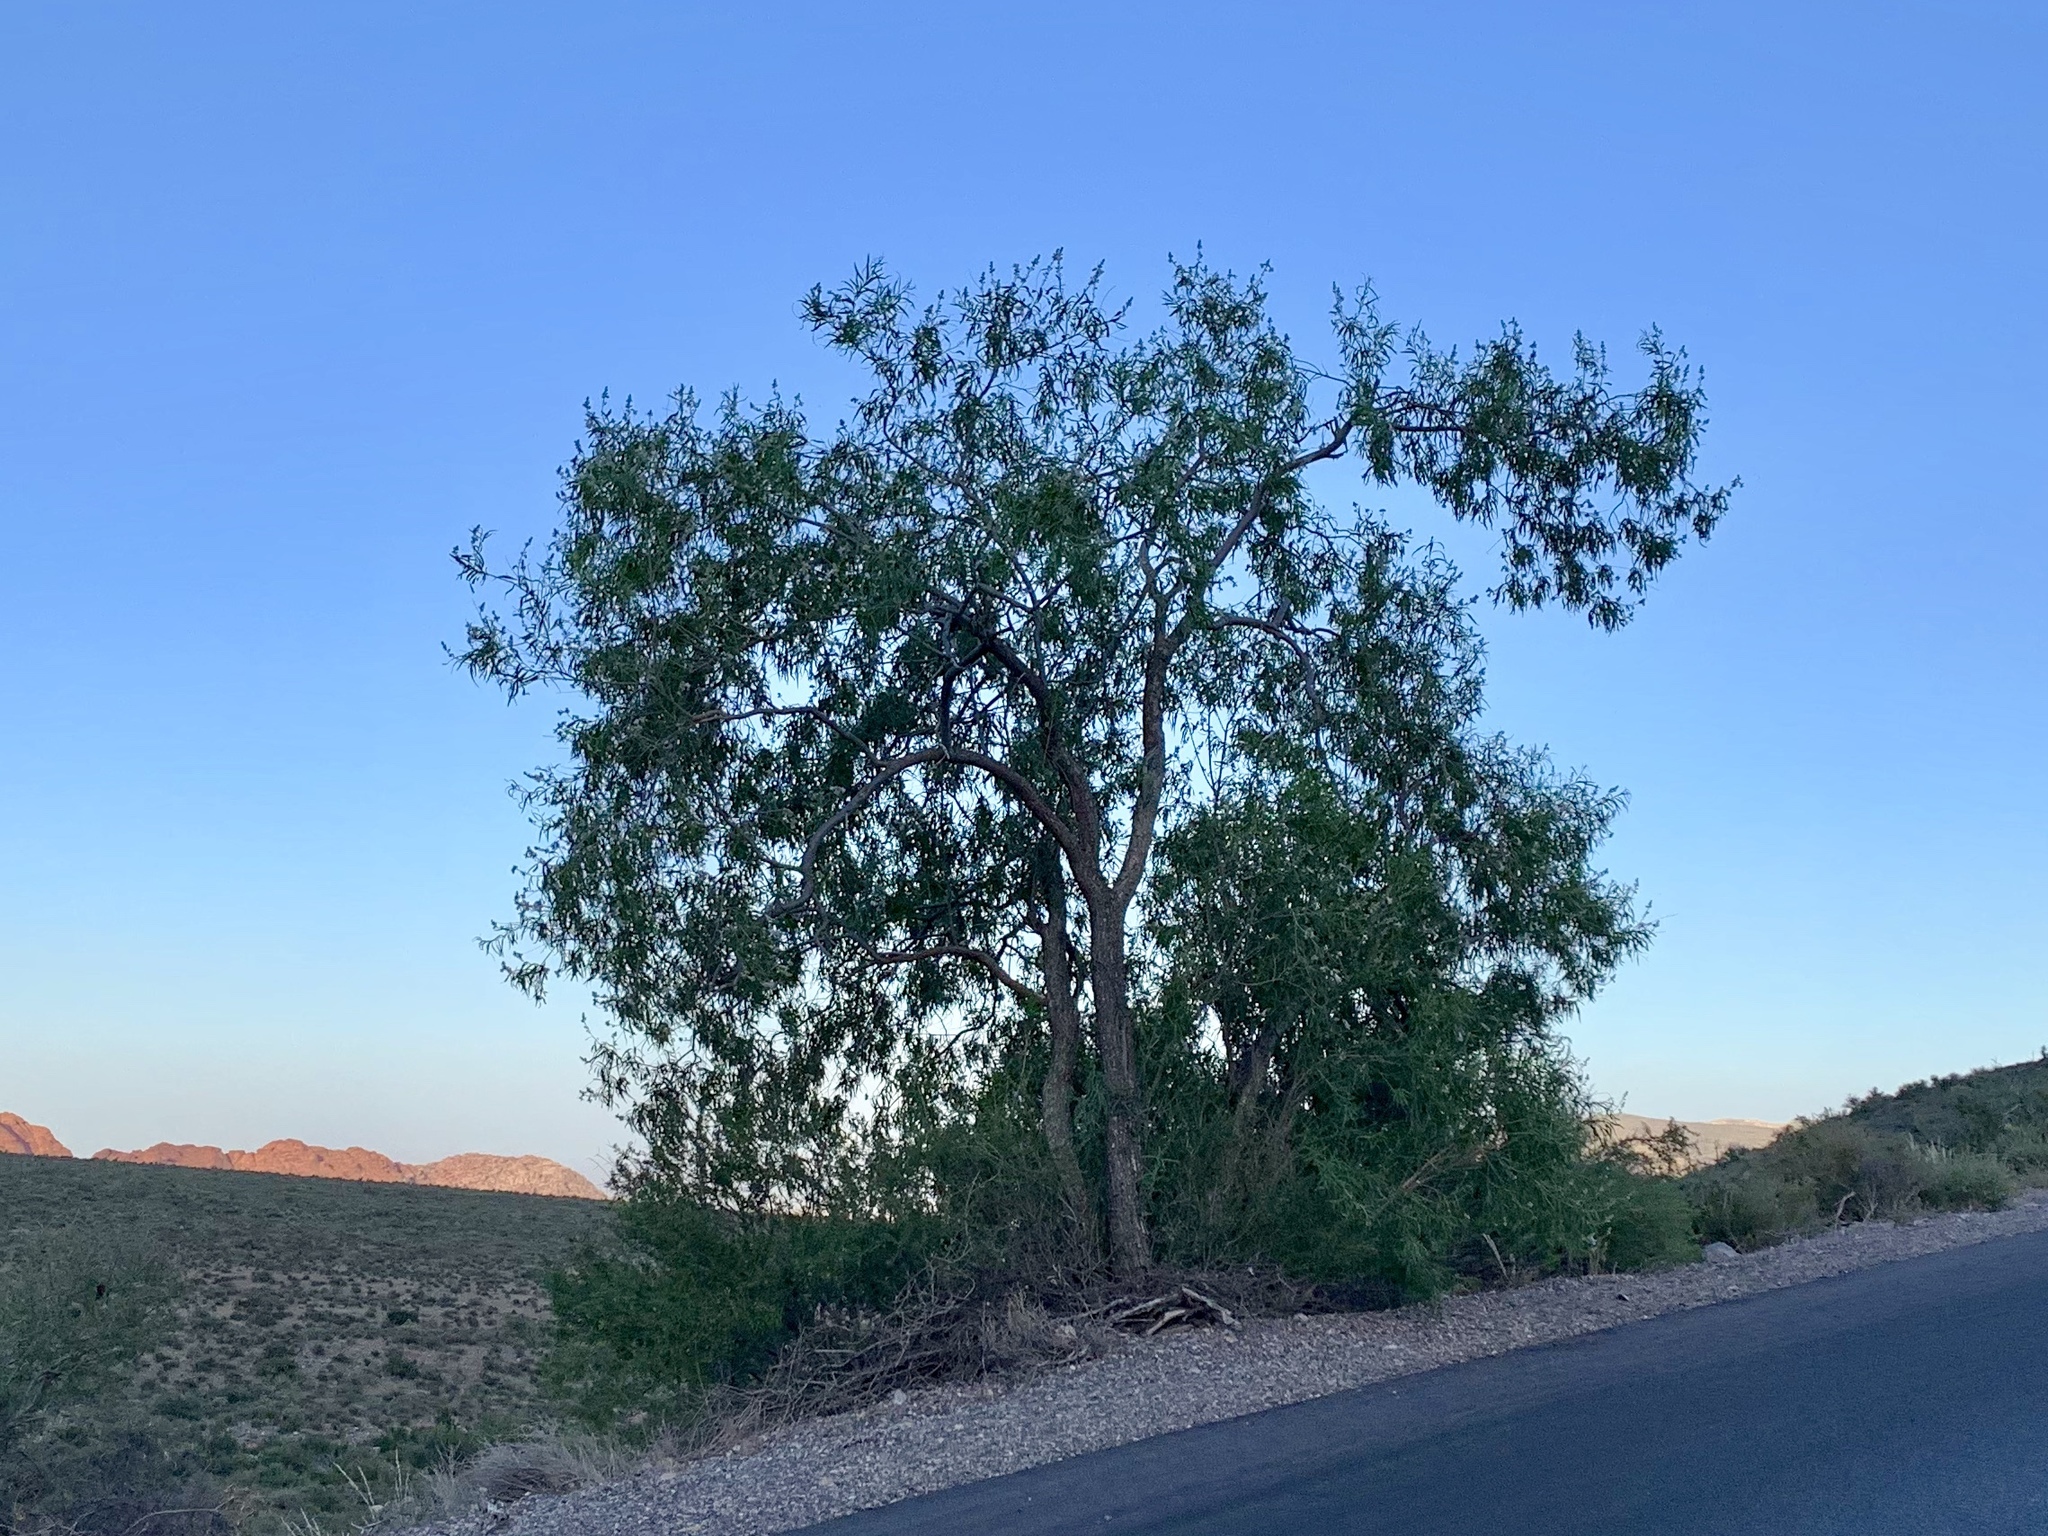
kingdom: Plantae
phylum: Tracheophyta
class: Magnoliopsida
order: Lamiales
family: Bignoniaceae
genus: Chilopsis
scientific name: Chilopsis linearis
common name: Desert-willow
